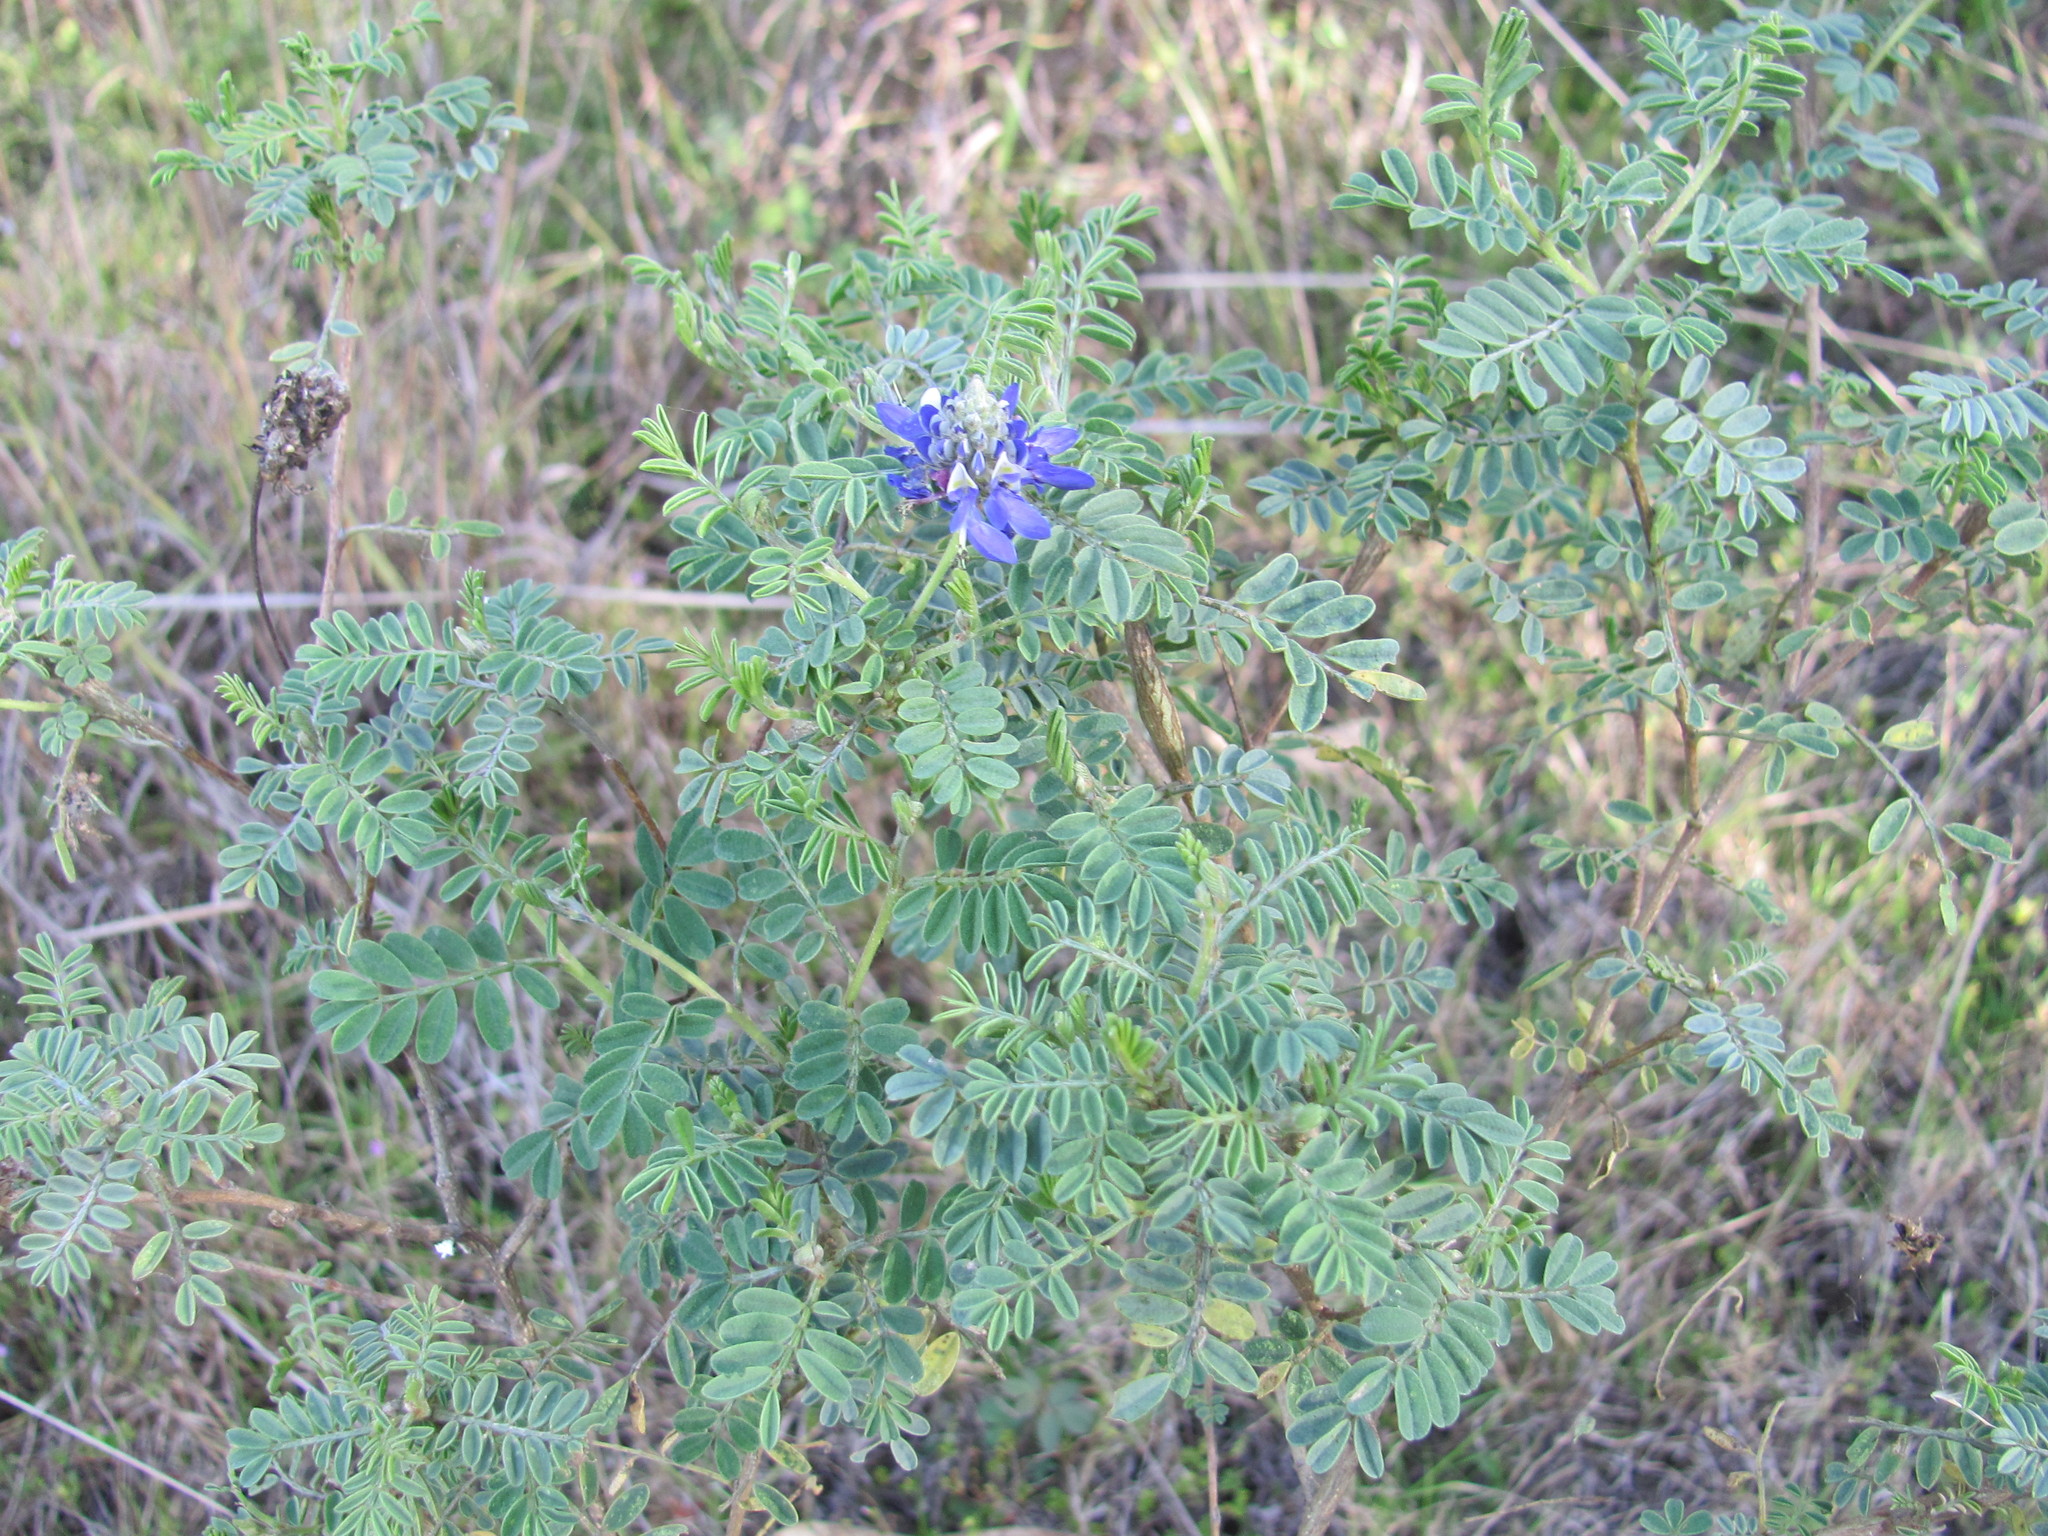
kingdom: Plantae
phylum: Tracheophyta
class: Magnoliopsida
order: Fabales
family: Fabaceae
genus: Dalea
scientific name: Dalea coerulea
